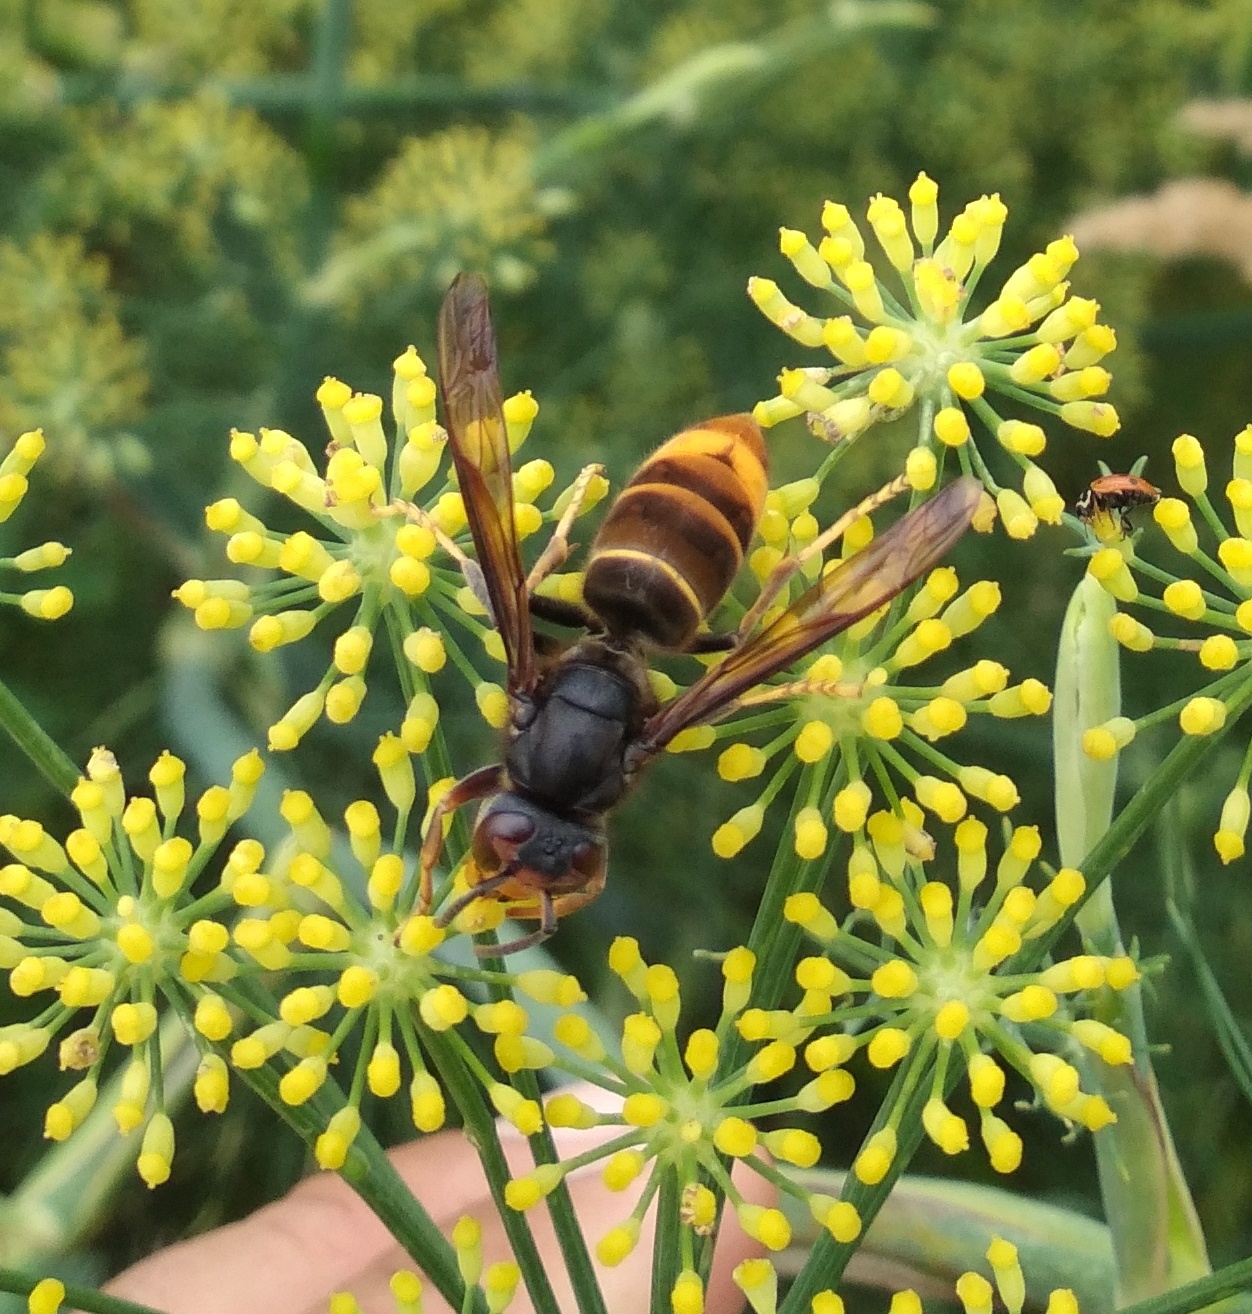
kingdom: Animalia
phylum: Arthropoda
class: Insecta
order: Hymenoptera
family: Vespidae
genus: Vespa
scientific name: Vespa velutina
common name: Asian hornet
